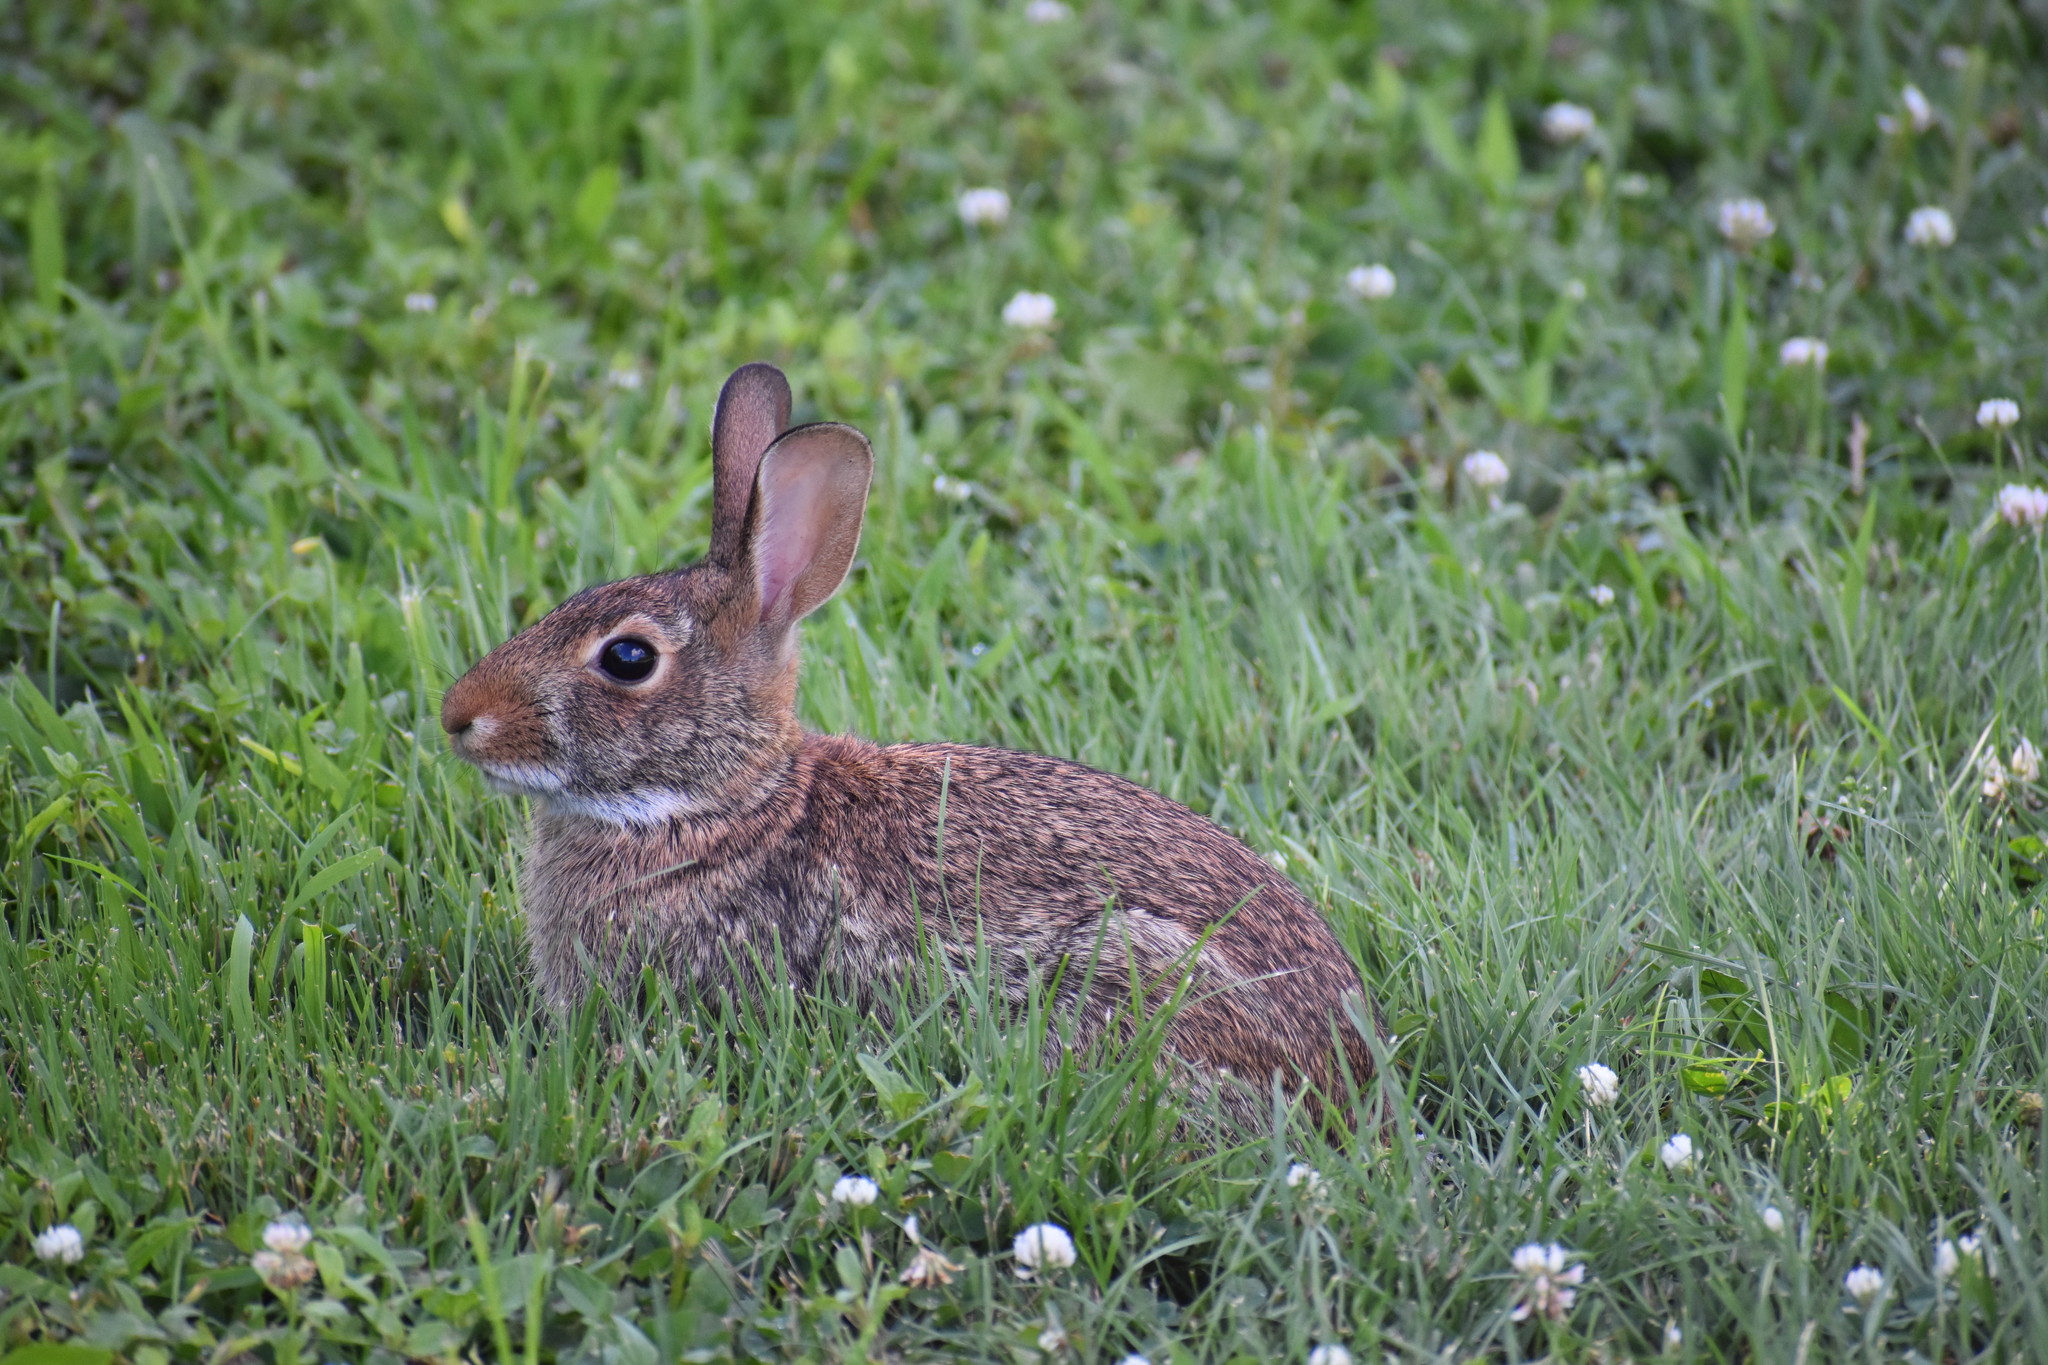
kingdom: Animalia
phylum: Chordata
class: Mammalia
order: Lagomorpha
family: Leporidae
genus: Sylvilagus
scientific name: Sylvilagus floridanus
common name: Eastern cottontail
